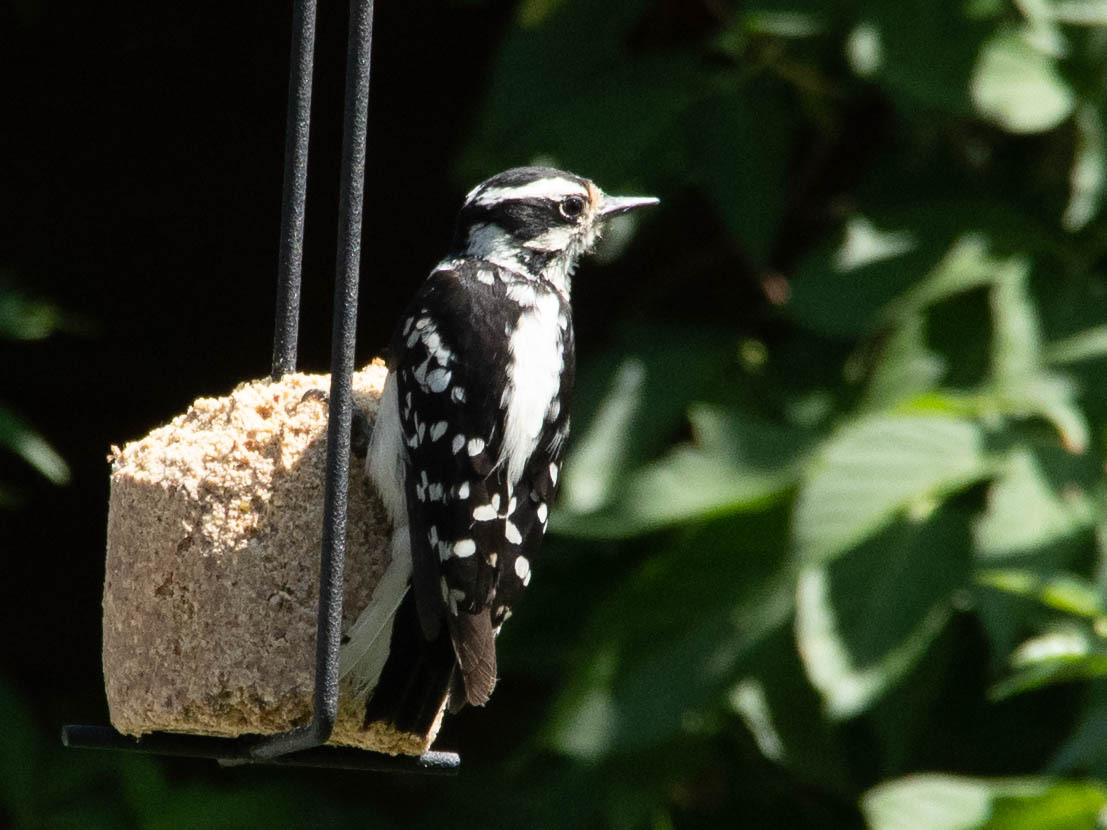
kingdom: Animalia
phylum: Chordata
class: Aves
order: Piciformes
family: Picidae
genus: Dryobates
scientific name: Dryobates pubescens
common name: Downy woodpecker
